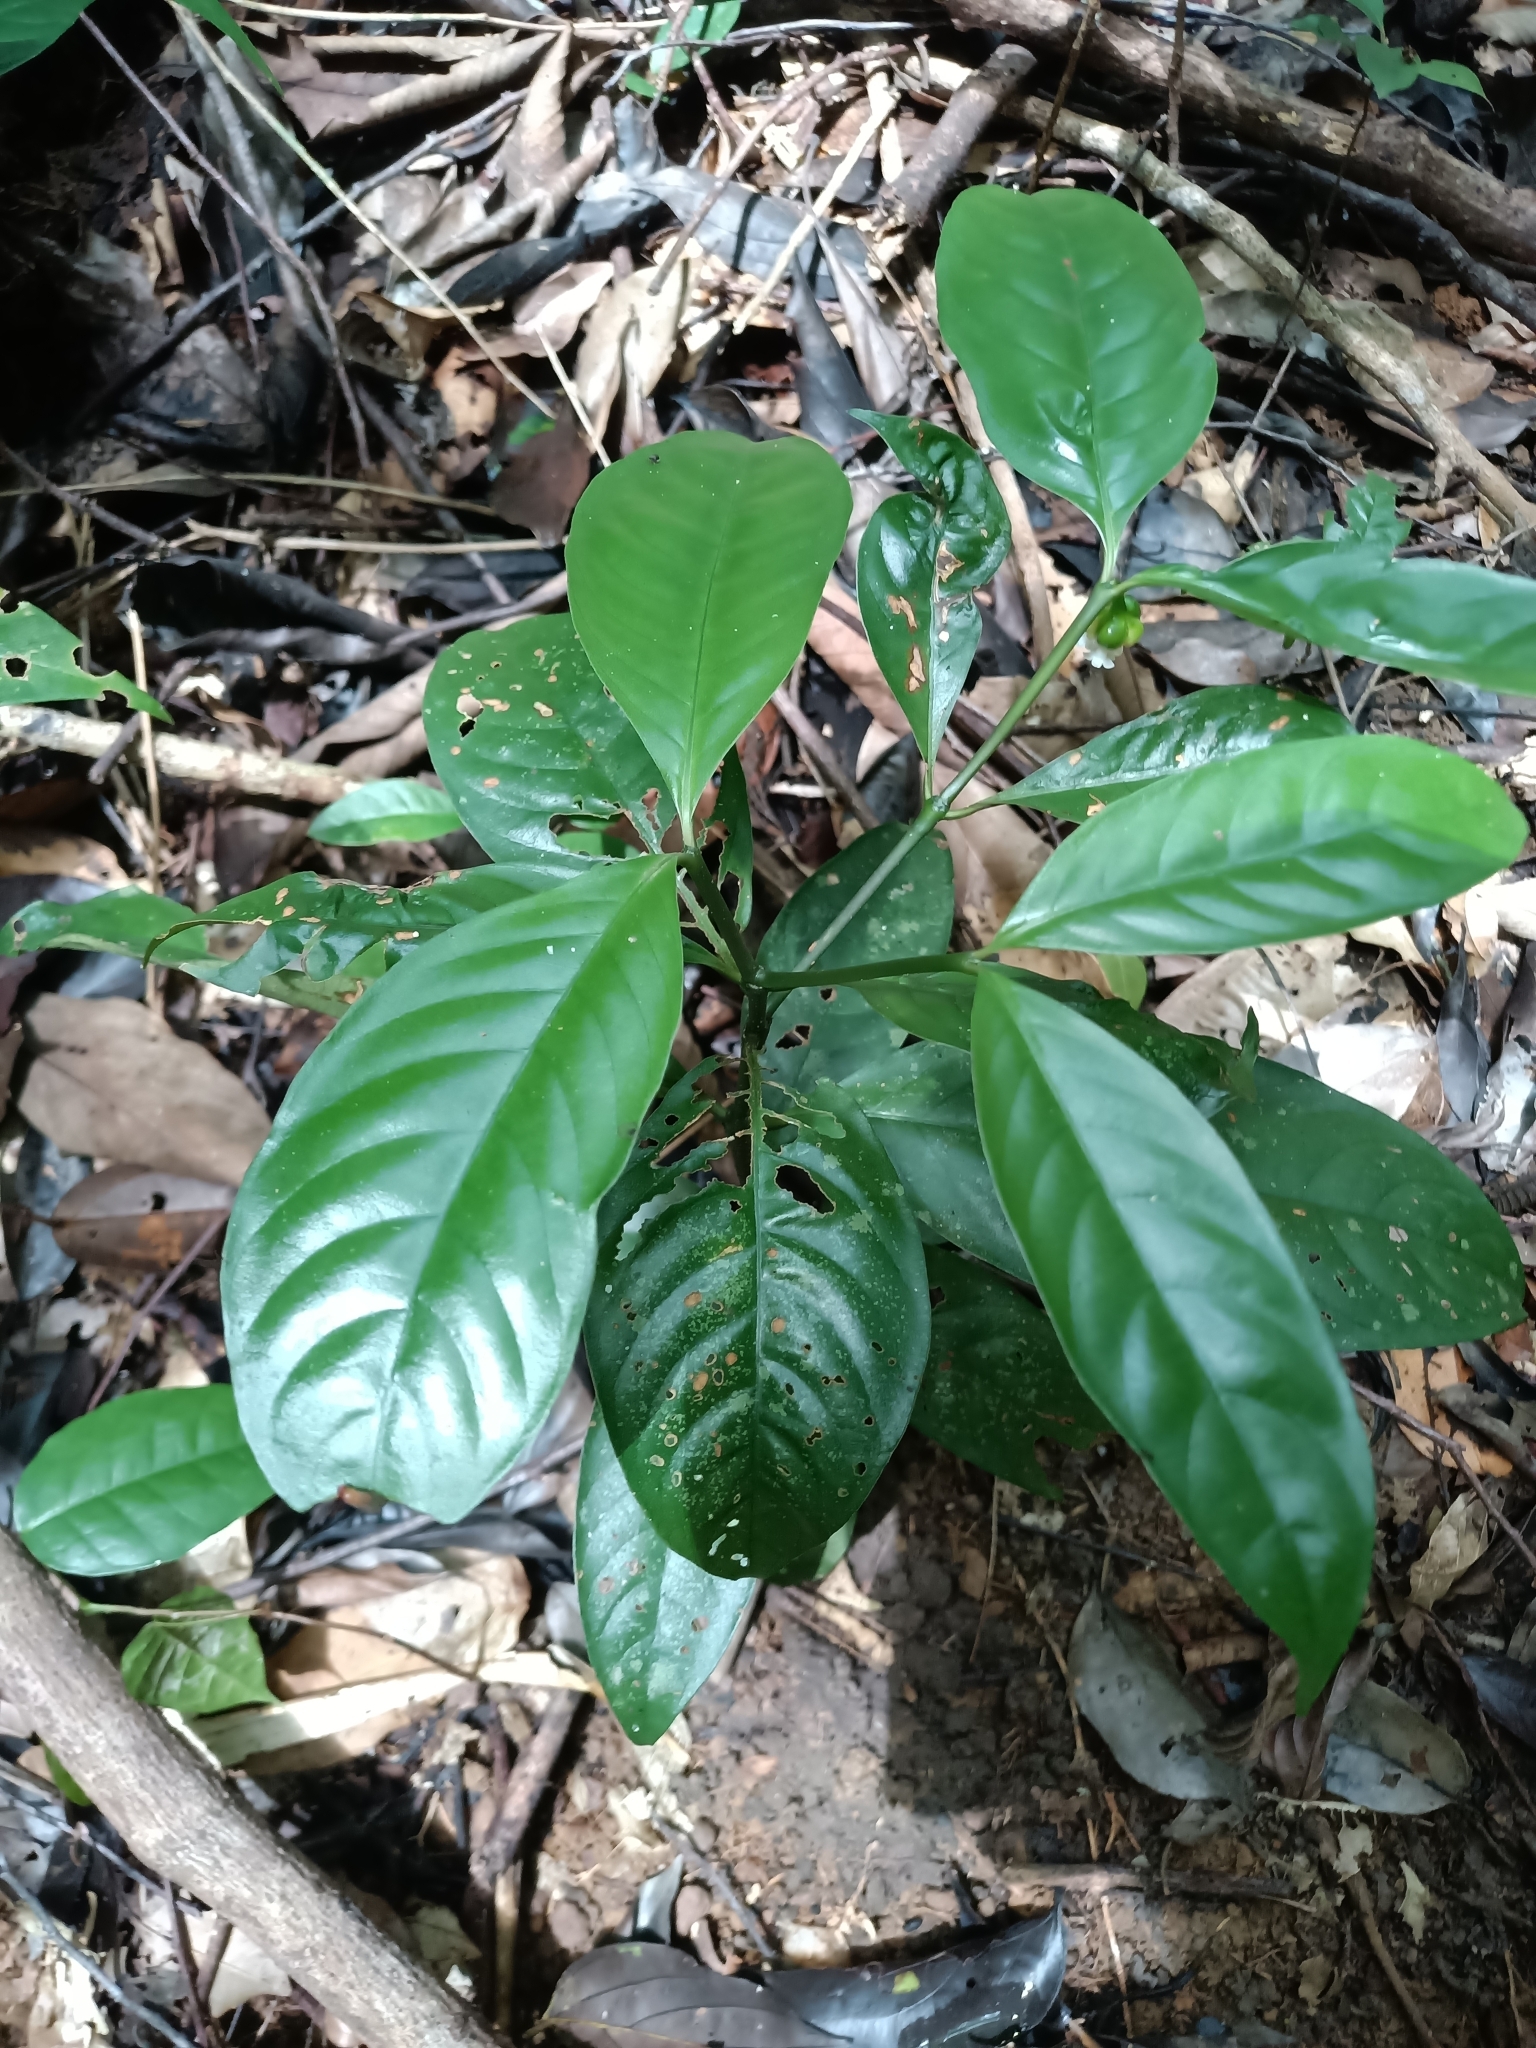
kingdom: Plantae
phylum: Tracheophyta
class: Magnoliopsida
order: Gentianales
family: Rubiaceae
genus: Palicourea
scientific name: Palicourea dichotoma
